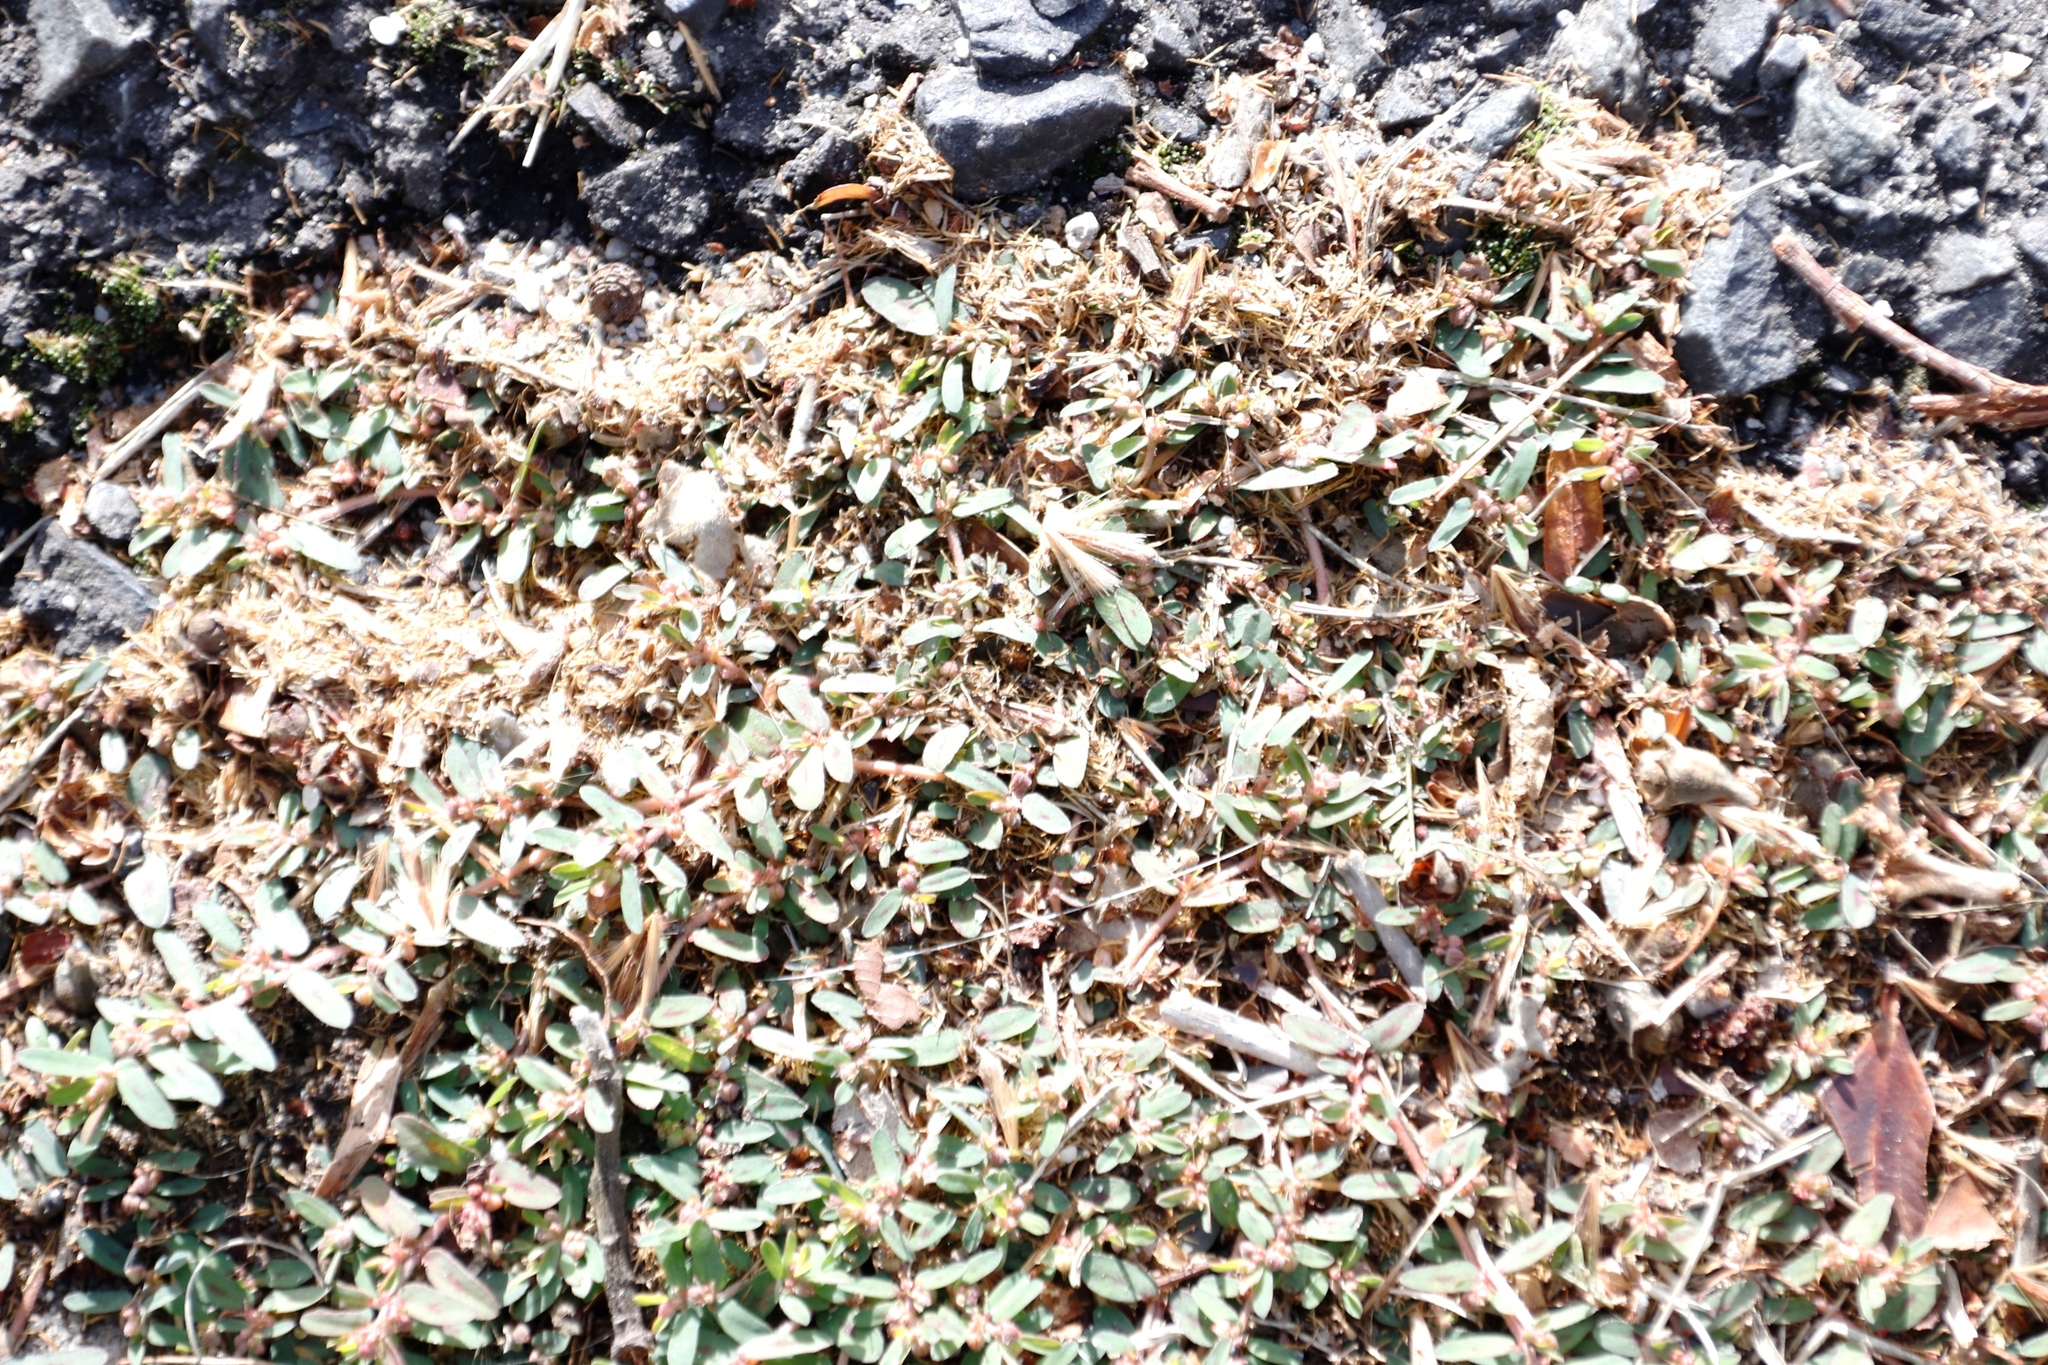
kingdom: Plantae
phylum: Tracheophyta
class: Magnoliopsida
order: Malpighiales
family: Euphorbiaceae
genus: Euphorbia
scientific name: Euphorbia maculata
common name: Spotted spurge
